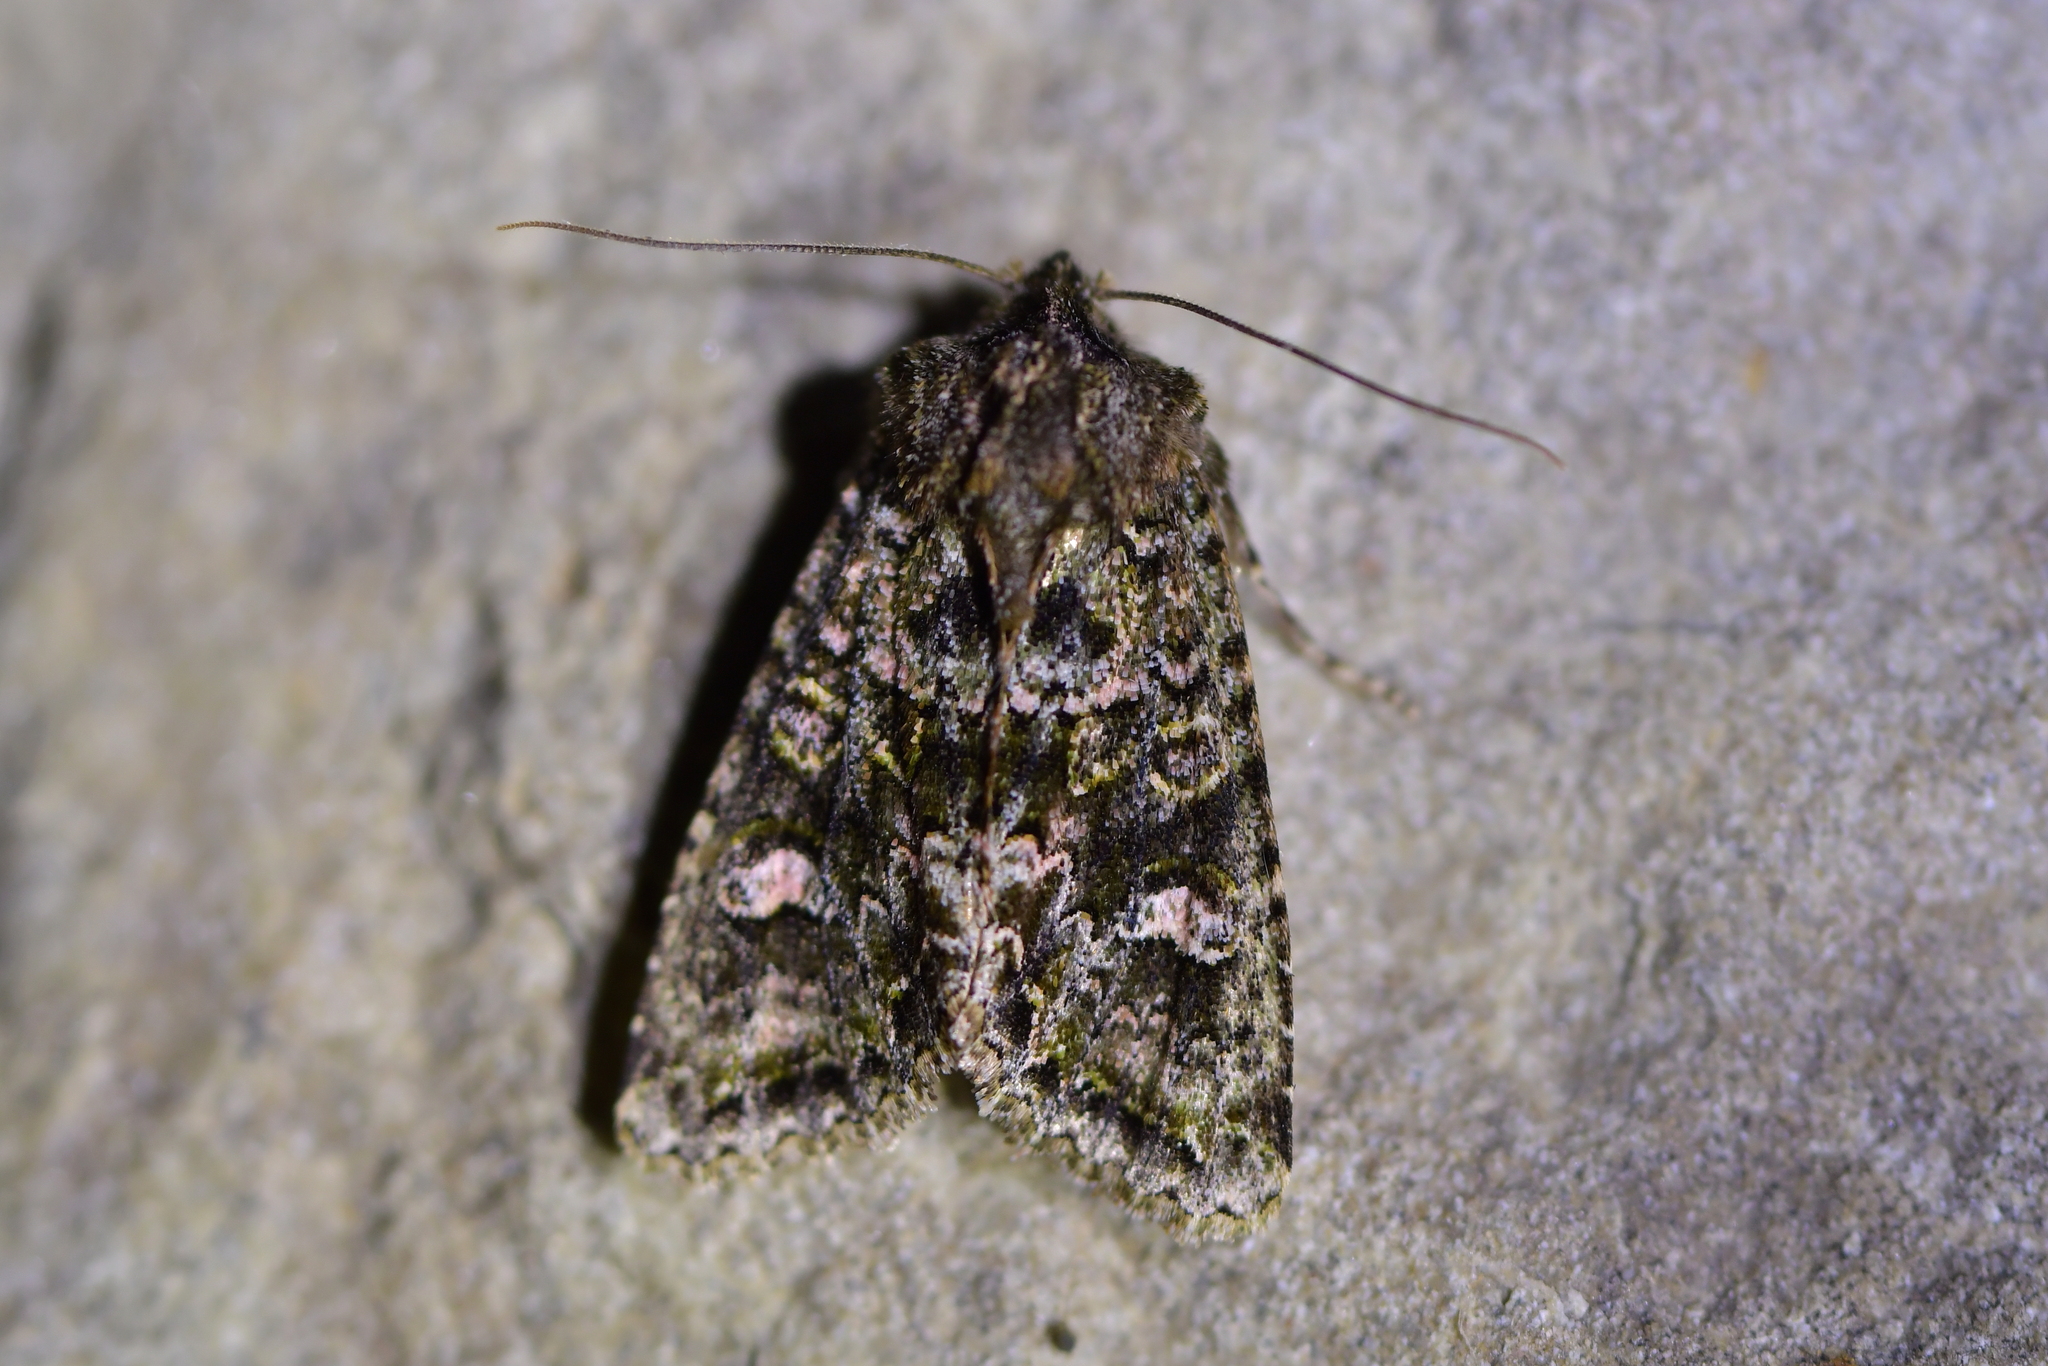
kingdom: Animalia
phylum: Arthropoda
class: Insecta
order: Lepidoptera
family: Noctuidae
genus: Ichneutica
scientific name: Ichneutica
